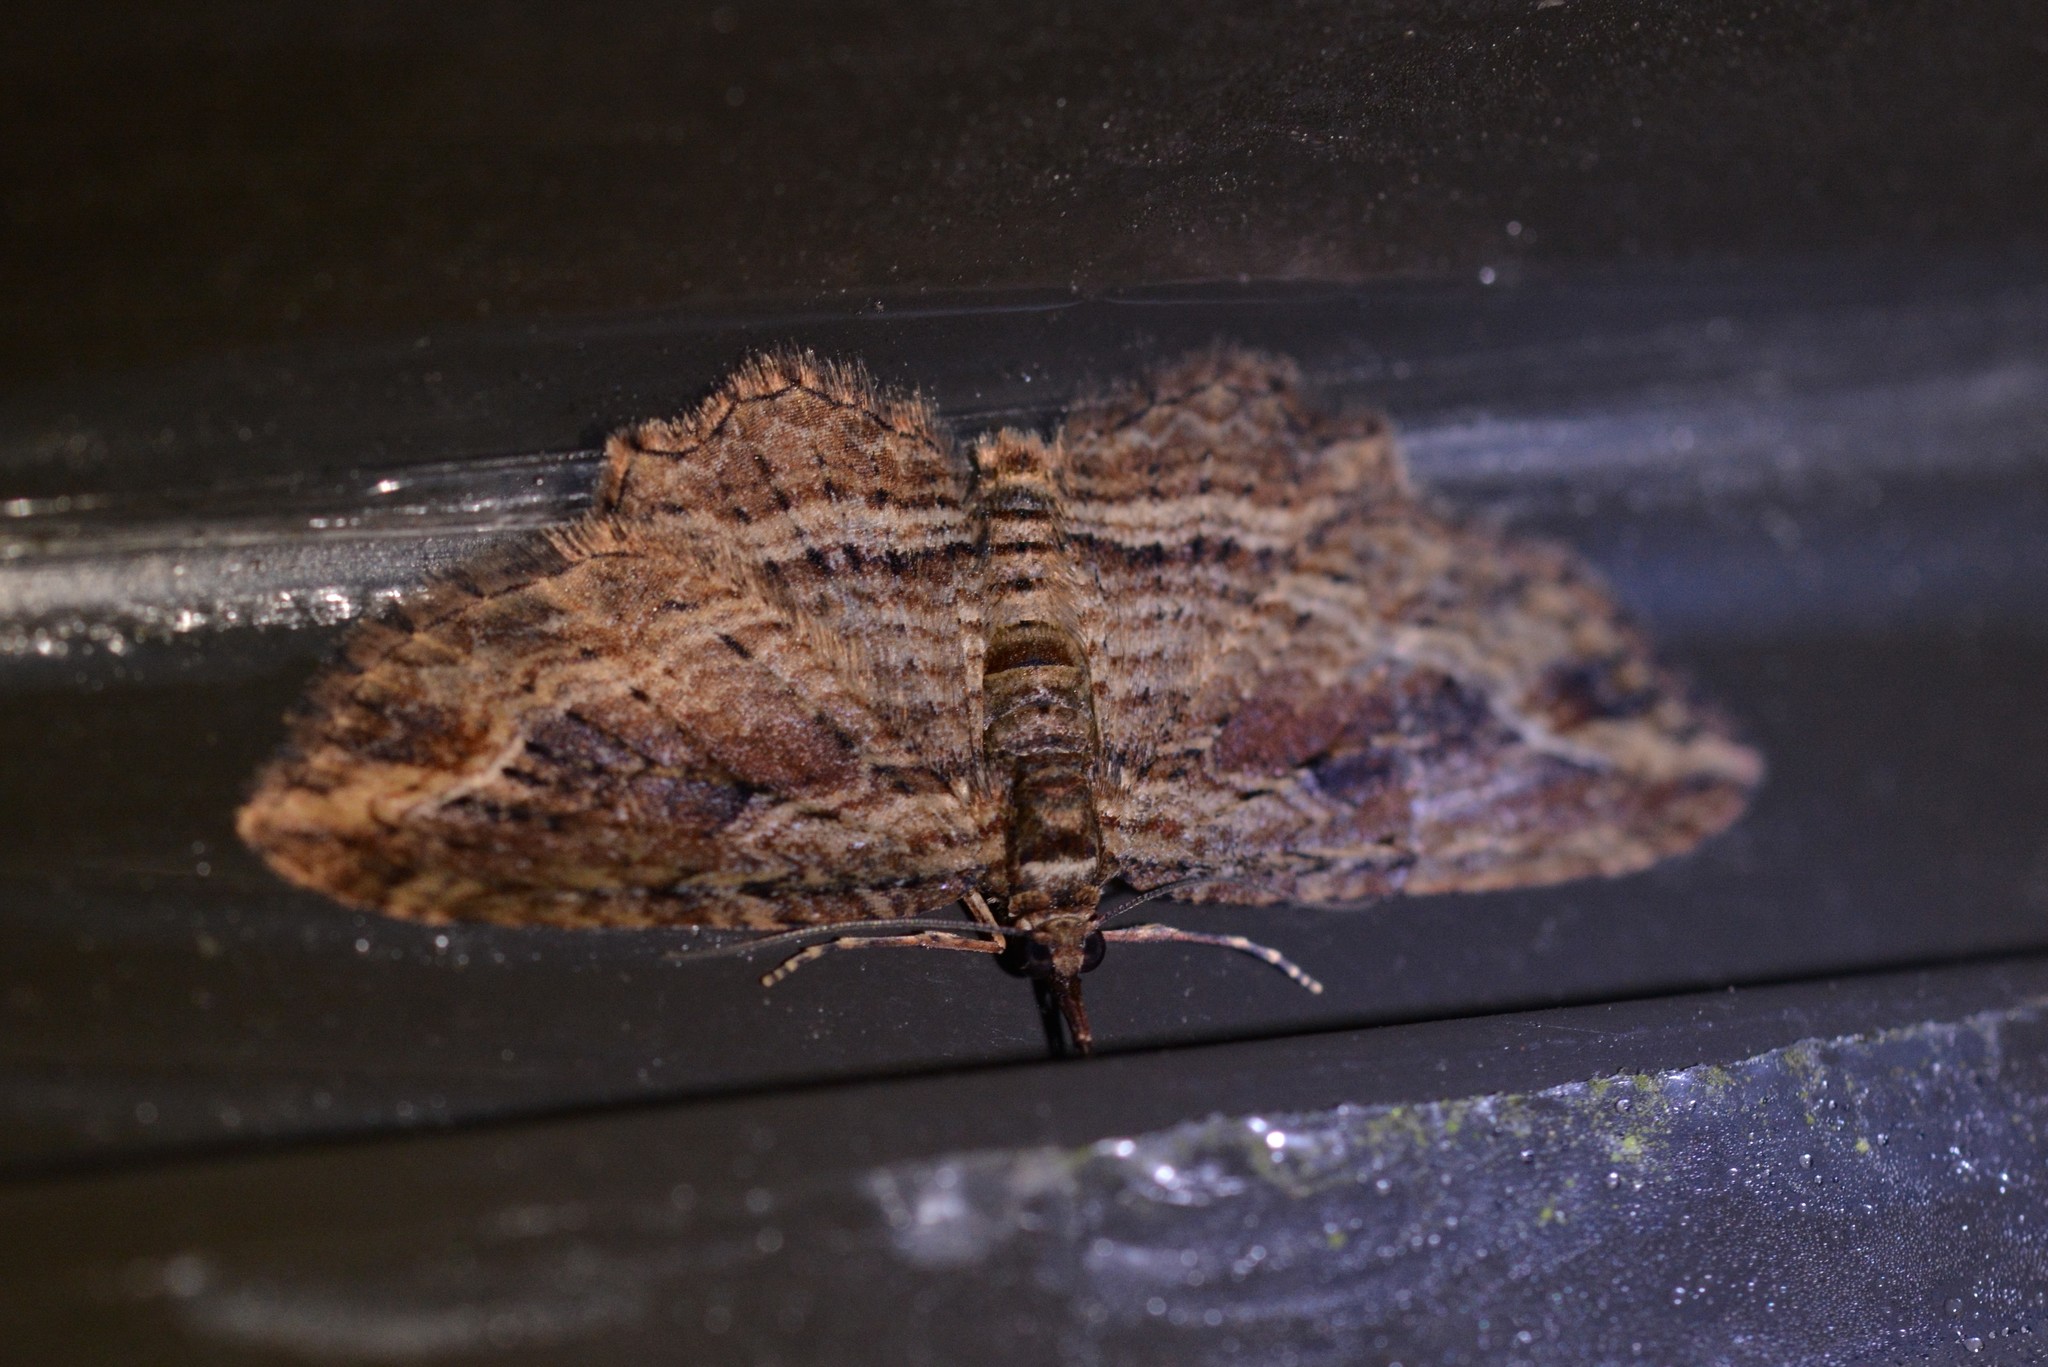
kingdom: Animalia
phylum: Arthropoda
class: Insecta
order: Lepidoptera
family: Geometridae
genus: Chloroclystis
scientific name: Chloroclystis filata
